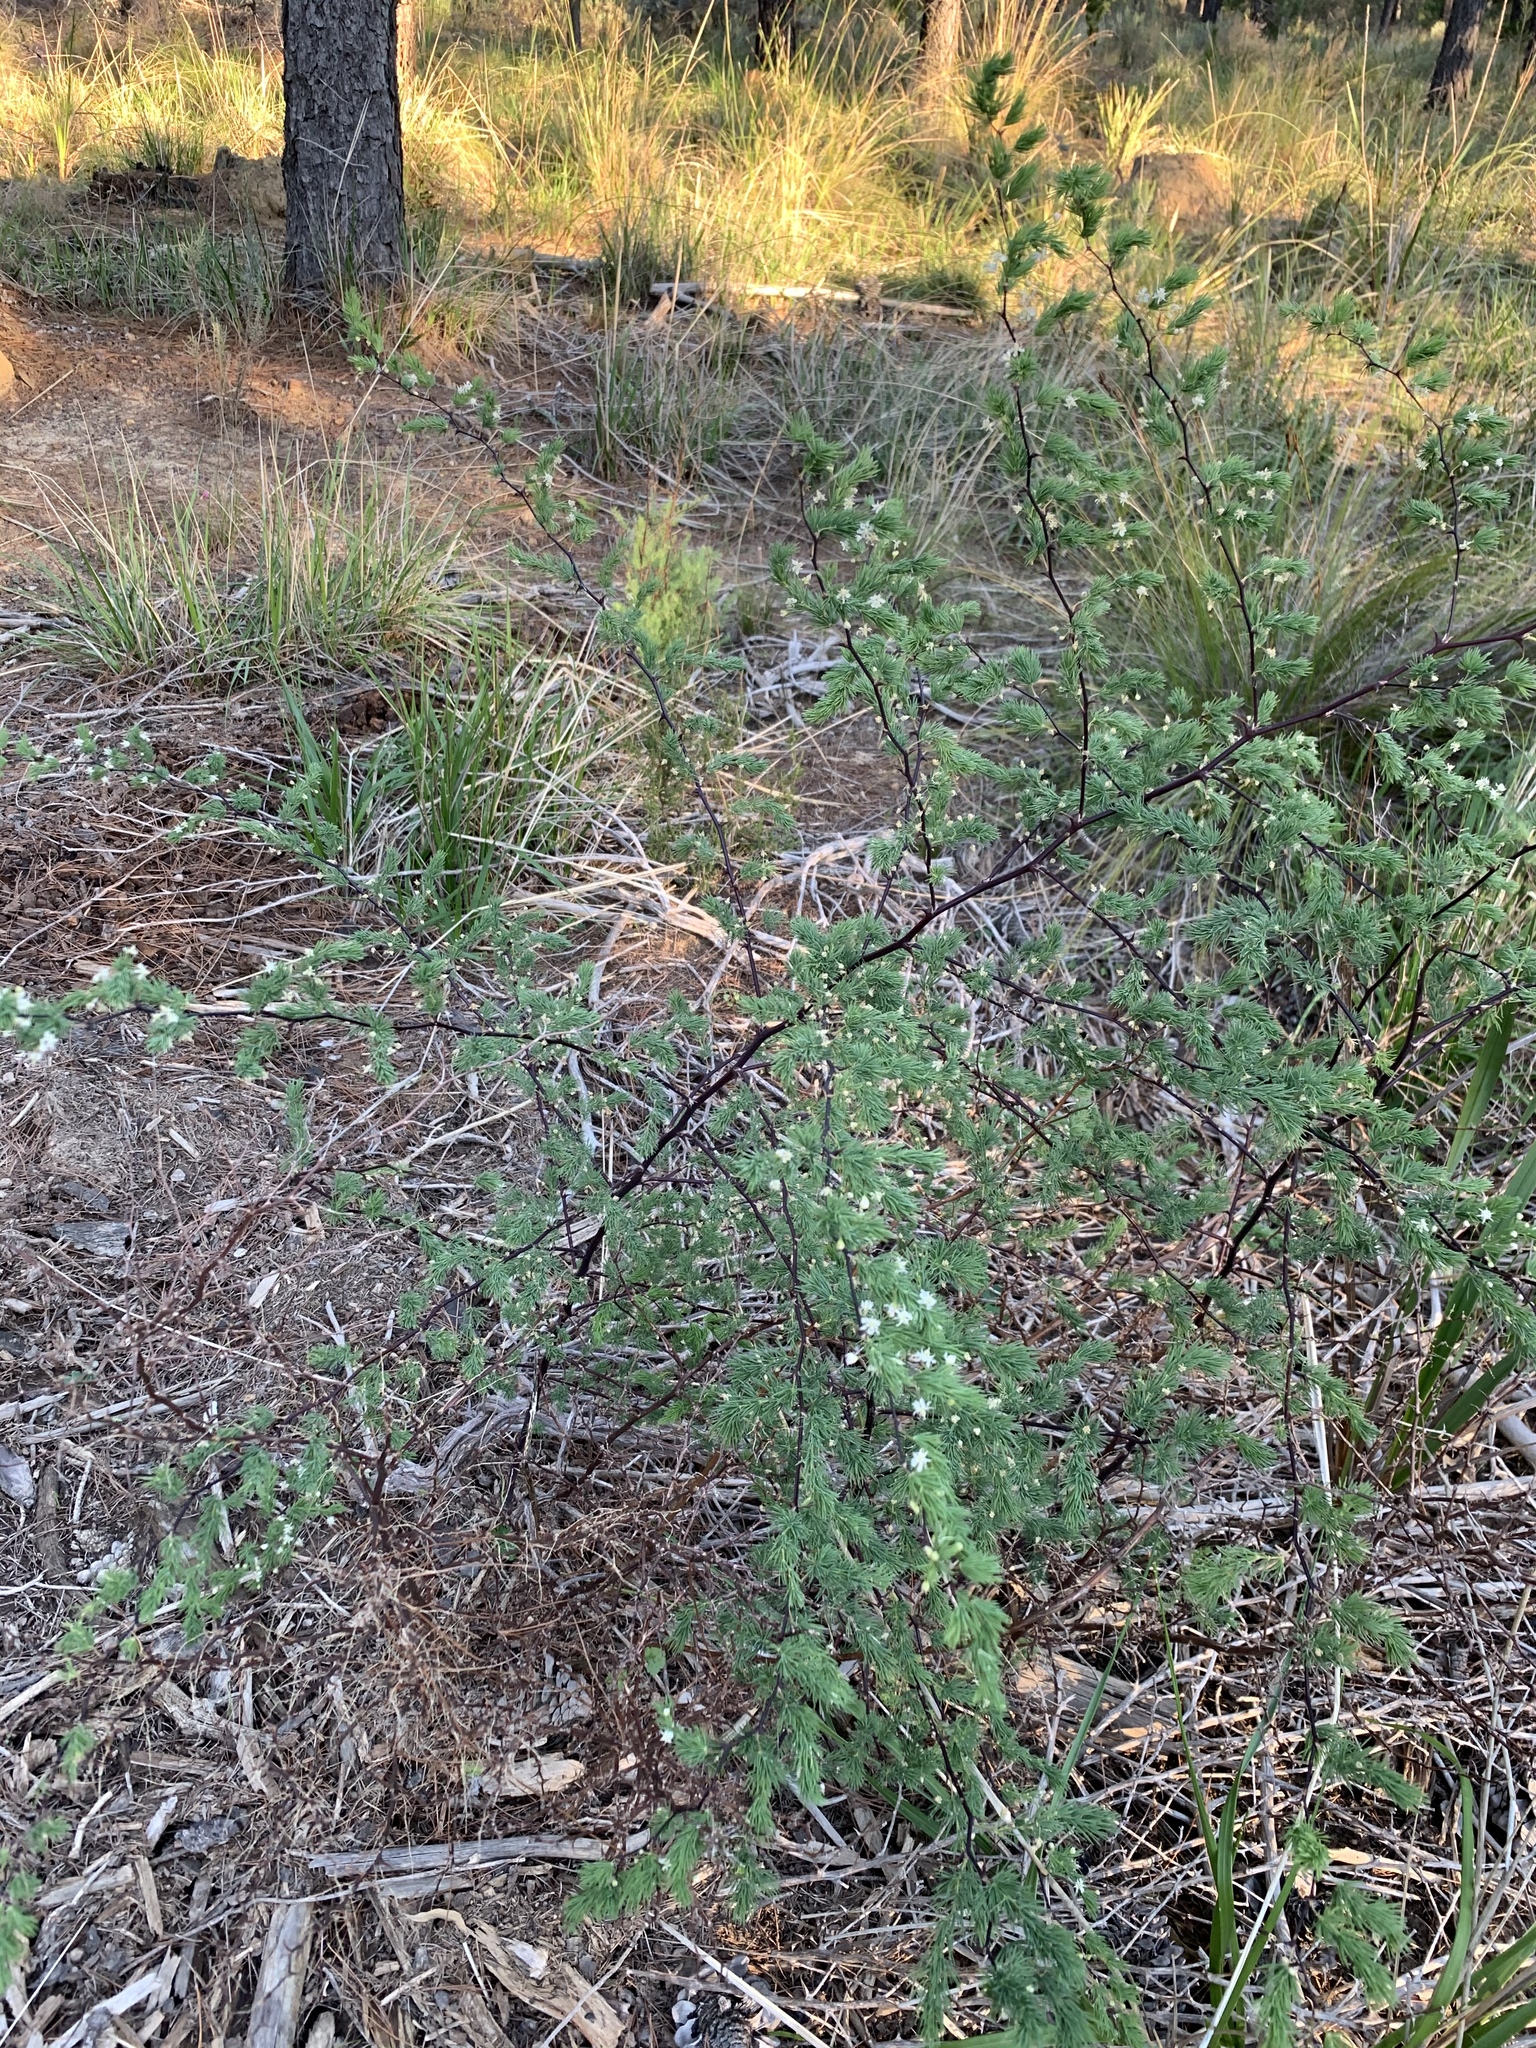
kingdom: Plantae
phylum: Tracheophyta
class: Liliopsida
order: Asparagales
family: Asparagaceae
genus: Asparagus
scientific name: Asparagus rubicundus
